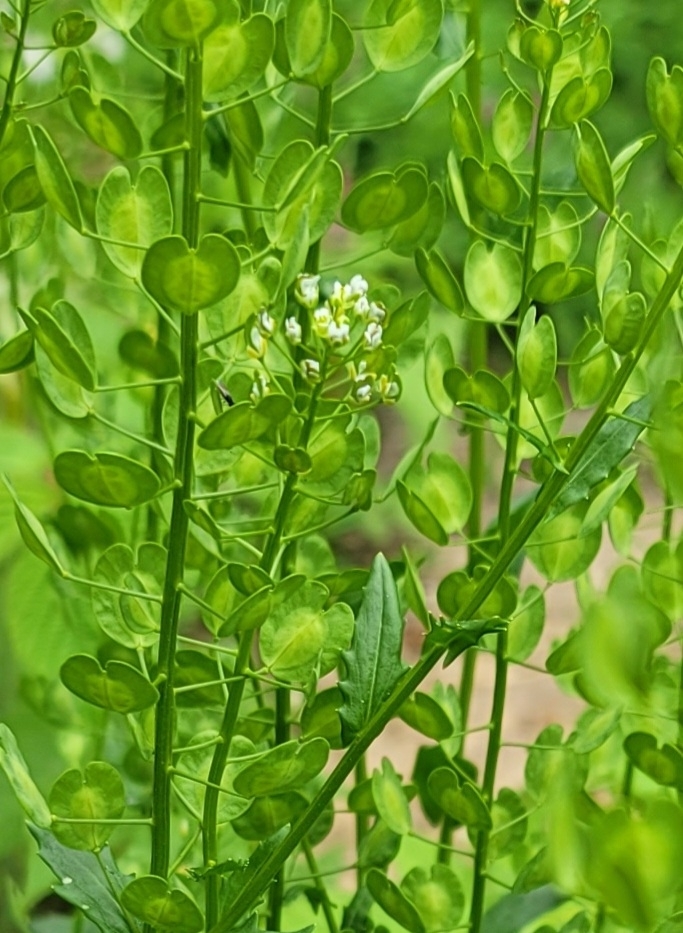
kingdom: Plantae
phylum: Tracheophyta
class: Magnoliopsida
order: Brassicales
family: Brassicaceae
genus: Thlaspi
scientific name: Thlaspi arvense
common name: Field pennycress
